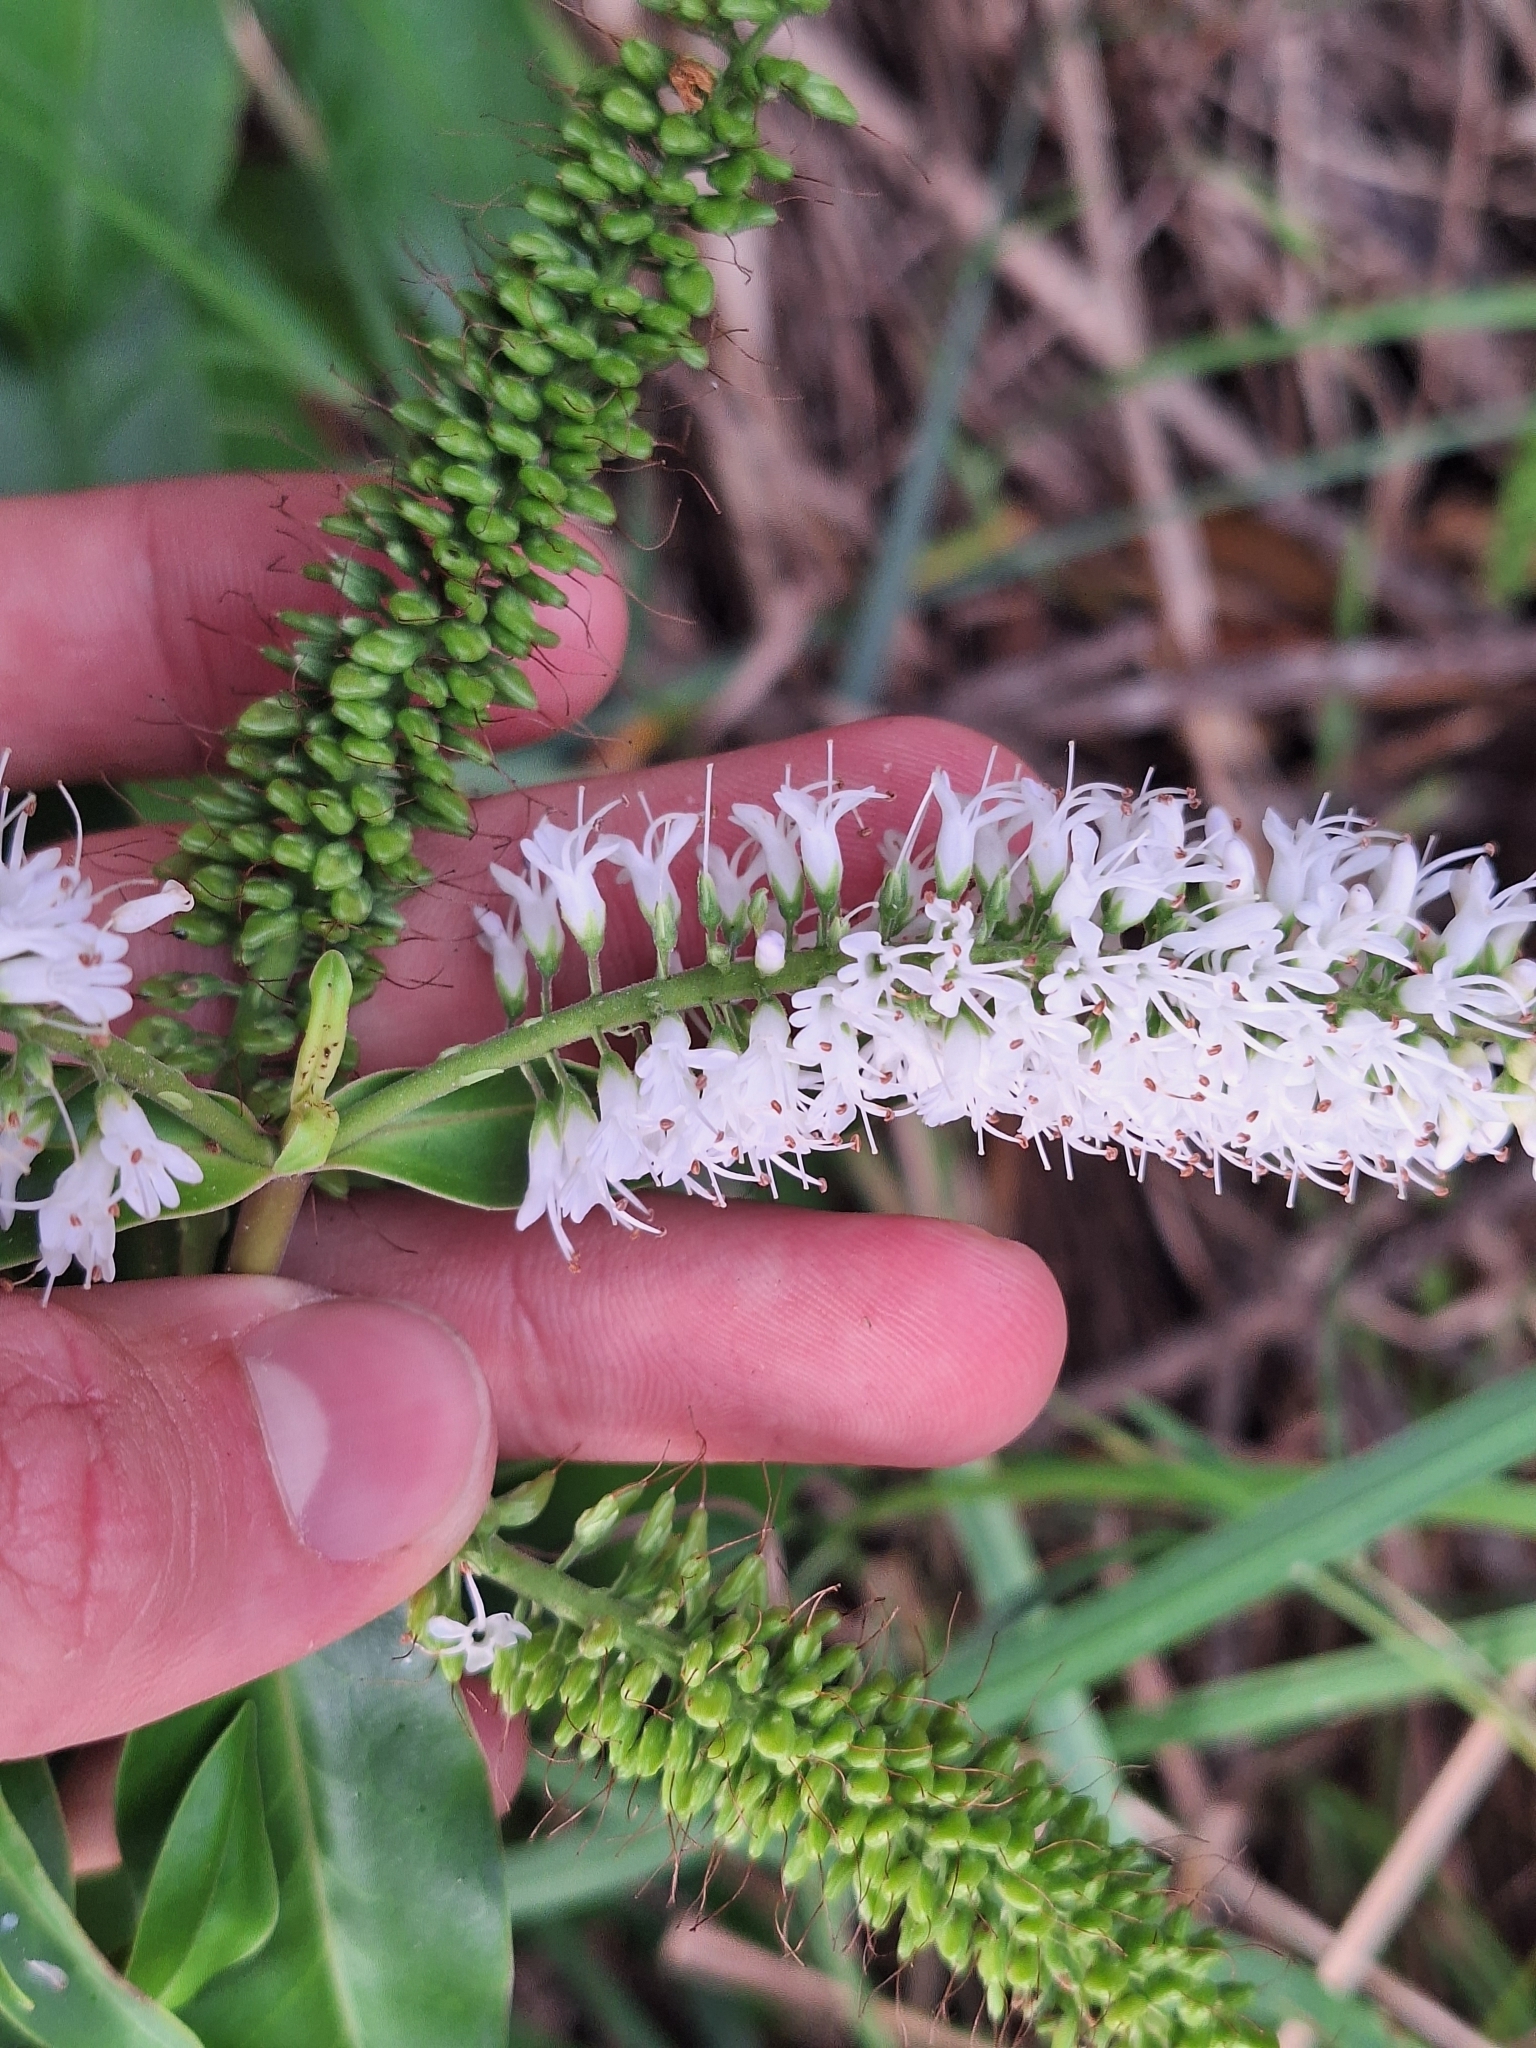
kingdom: Plantae
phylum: Tracheophyta
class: Magnoliopsida
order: Lamiales
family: Plantaginaceae
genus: Veronica
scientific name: Veronica stricta
